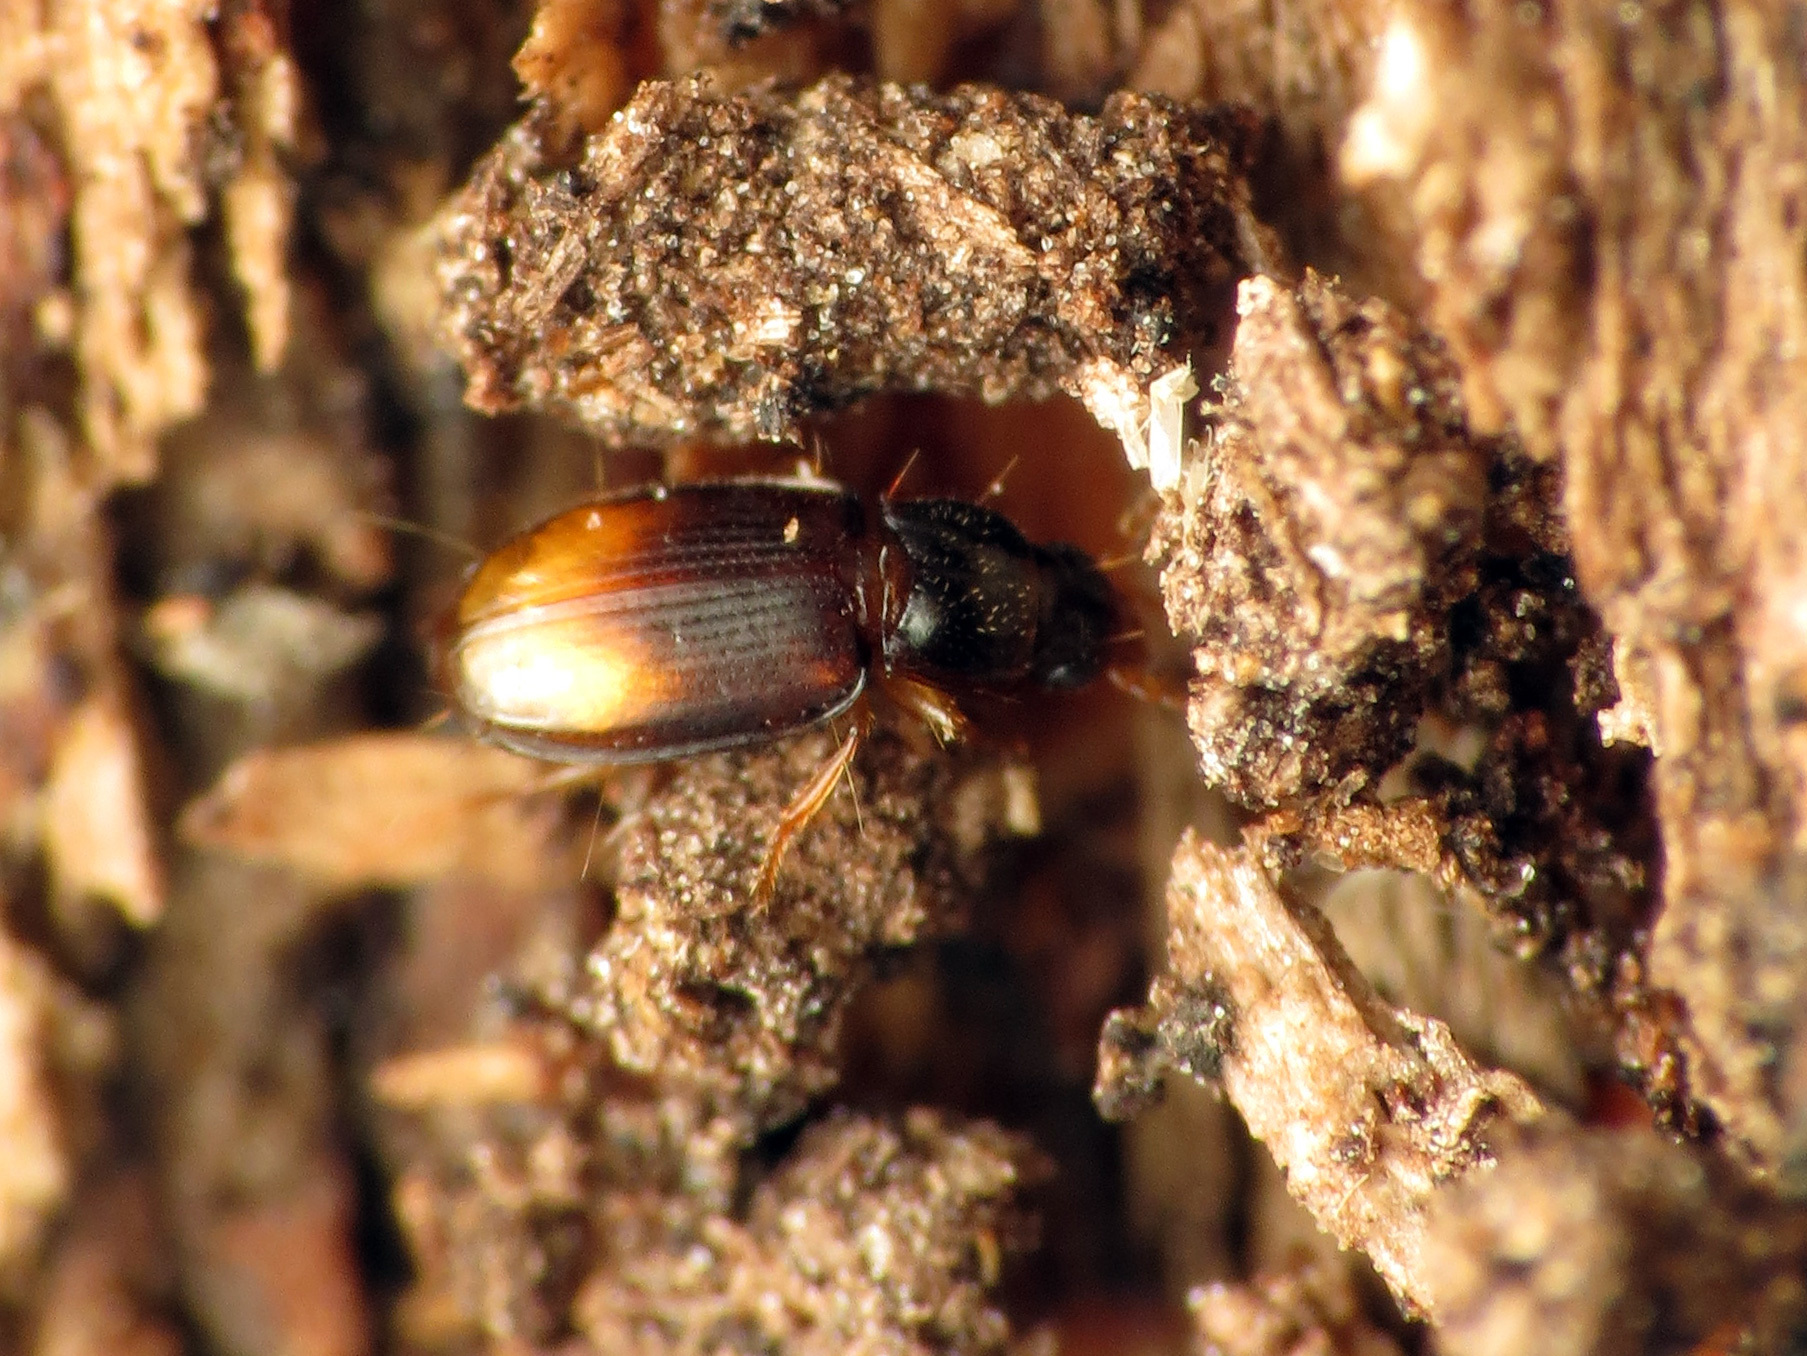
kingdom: Animalia
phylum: Arthropoda
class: Insecta
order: Coleoptera
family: Carabidae
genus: Mioptachys
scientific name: Mioptachys flavicauda
